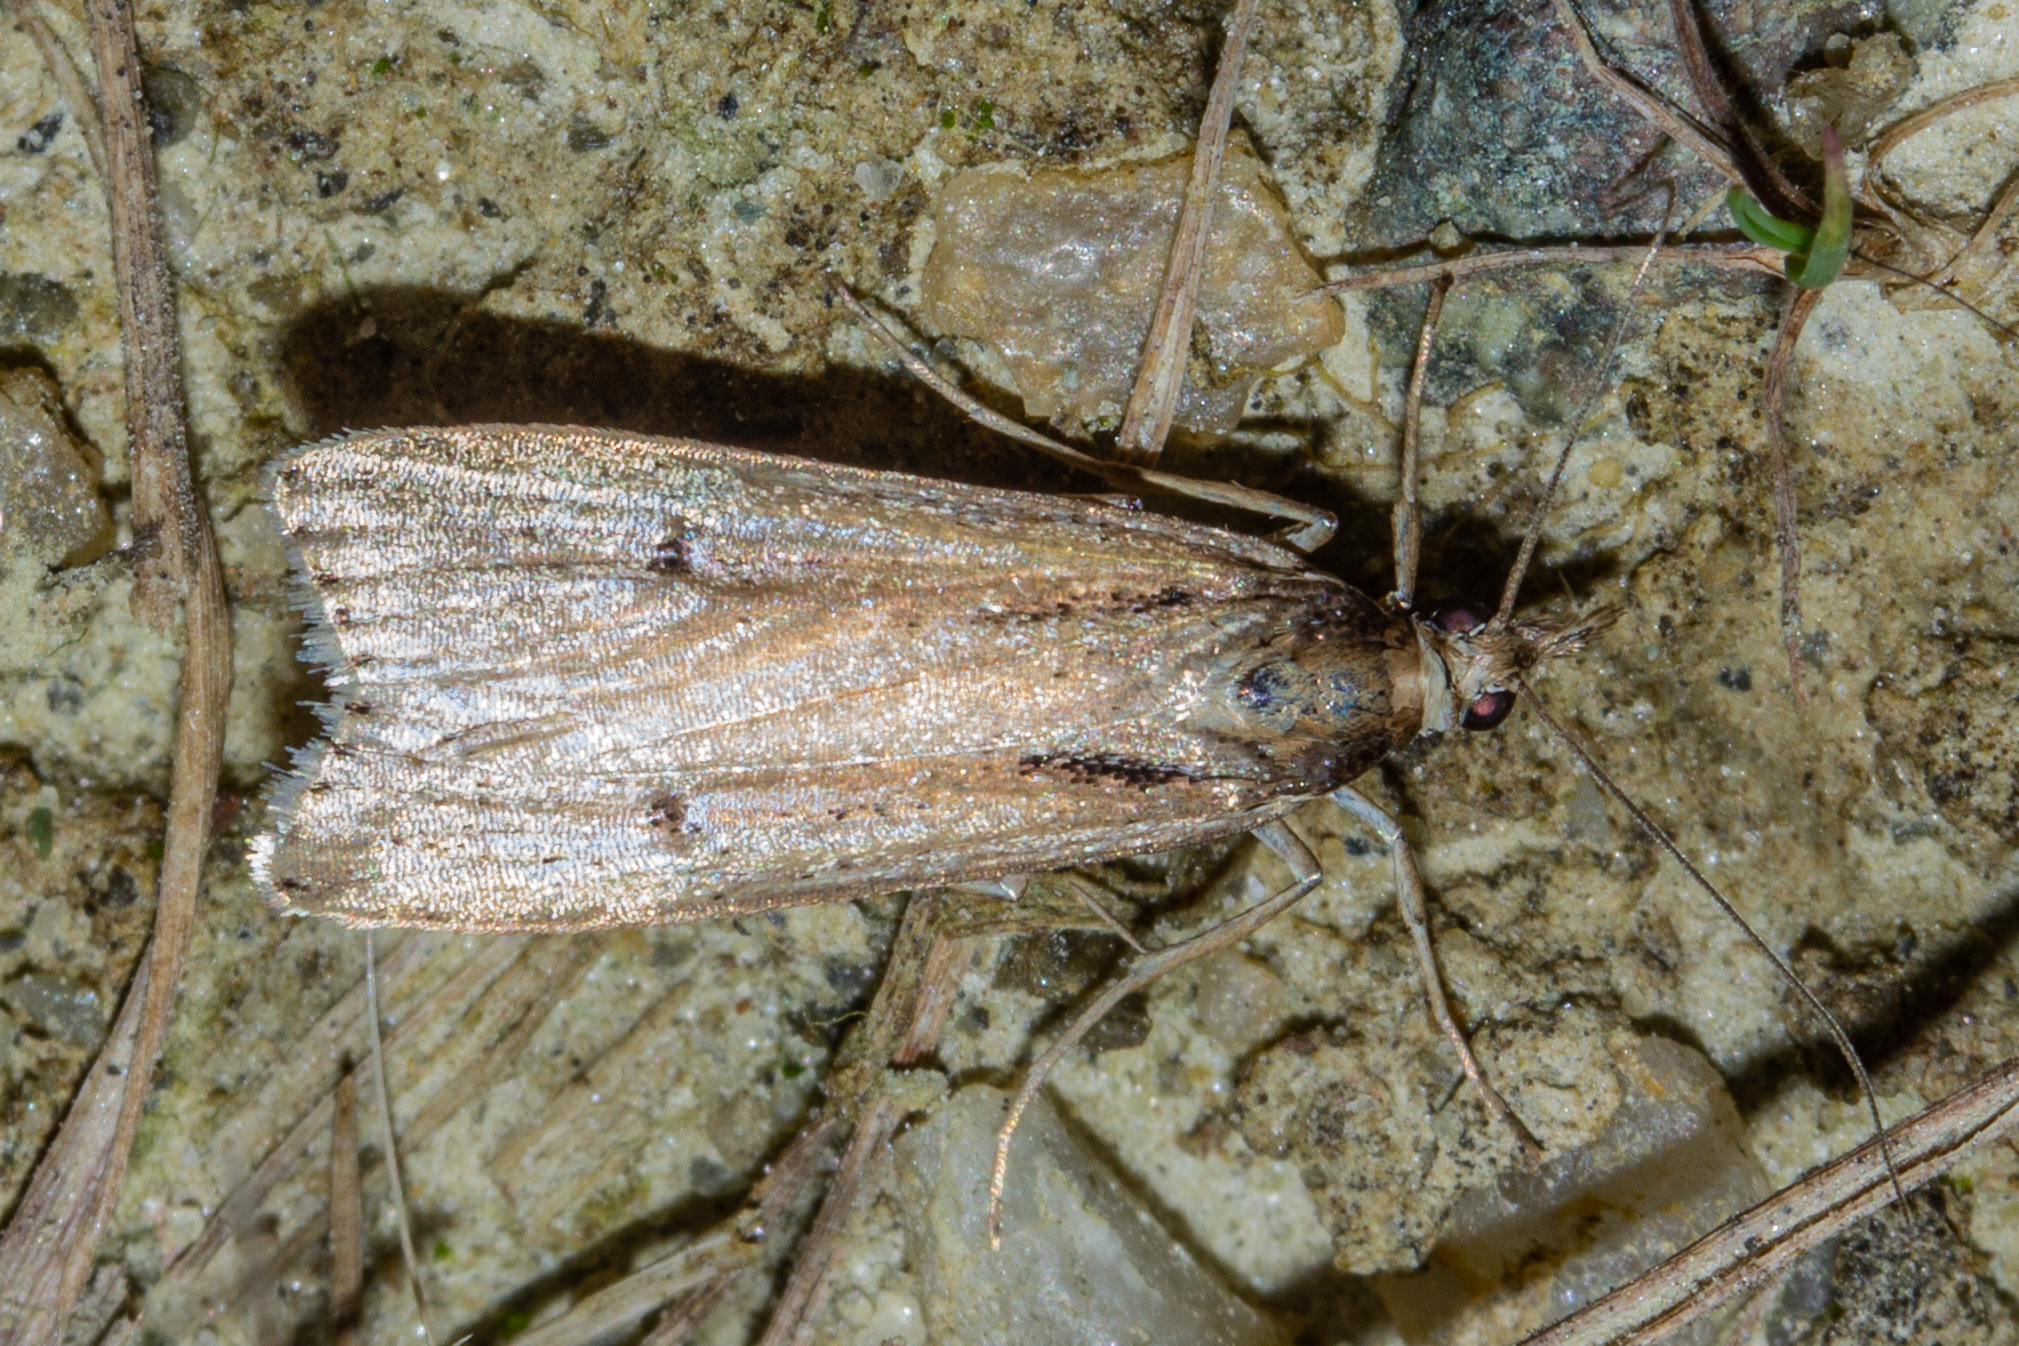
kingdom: Animalia
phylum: Arthropoda
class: Insecta
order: Lepidoptera
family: Crambidae
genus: Eudonia
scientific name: Eudonia sabulosella
